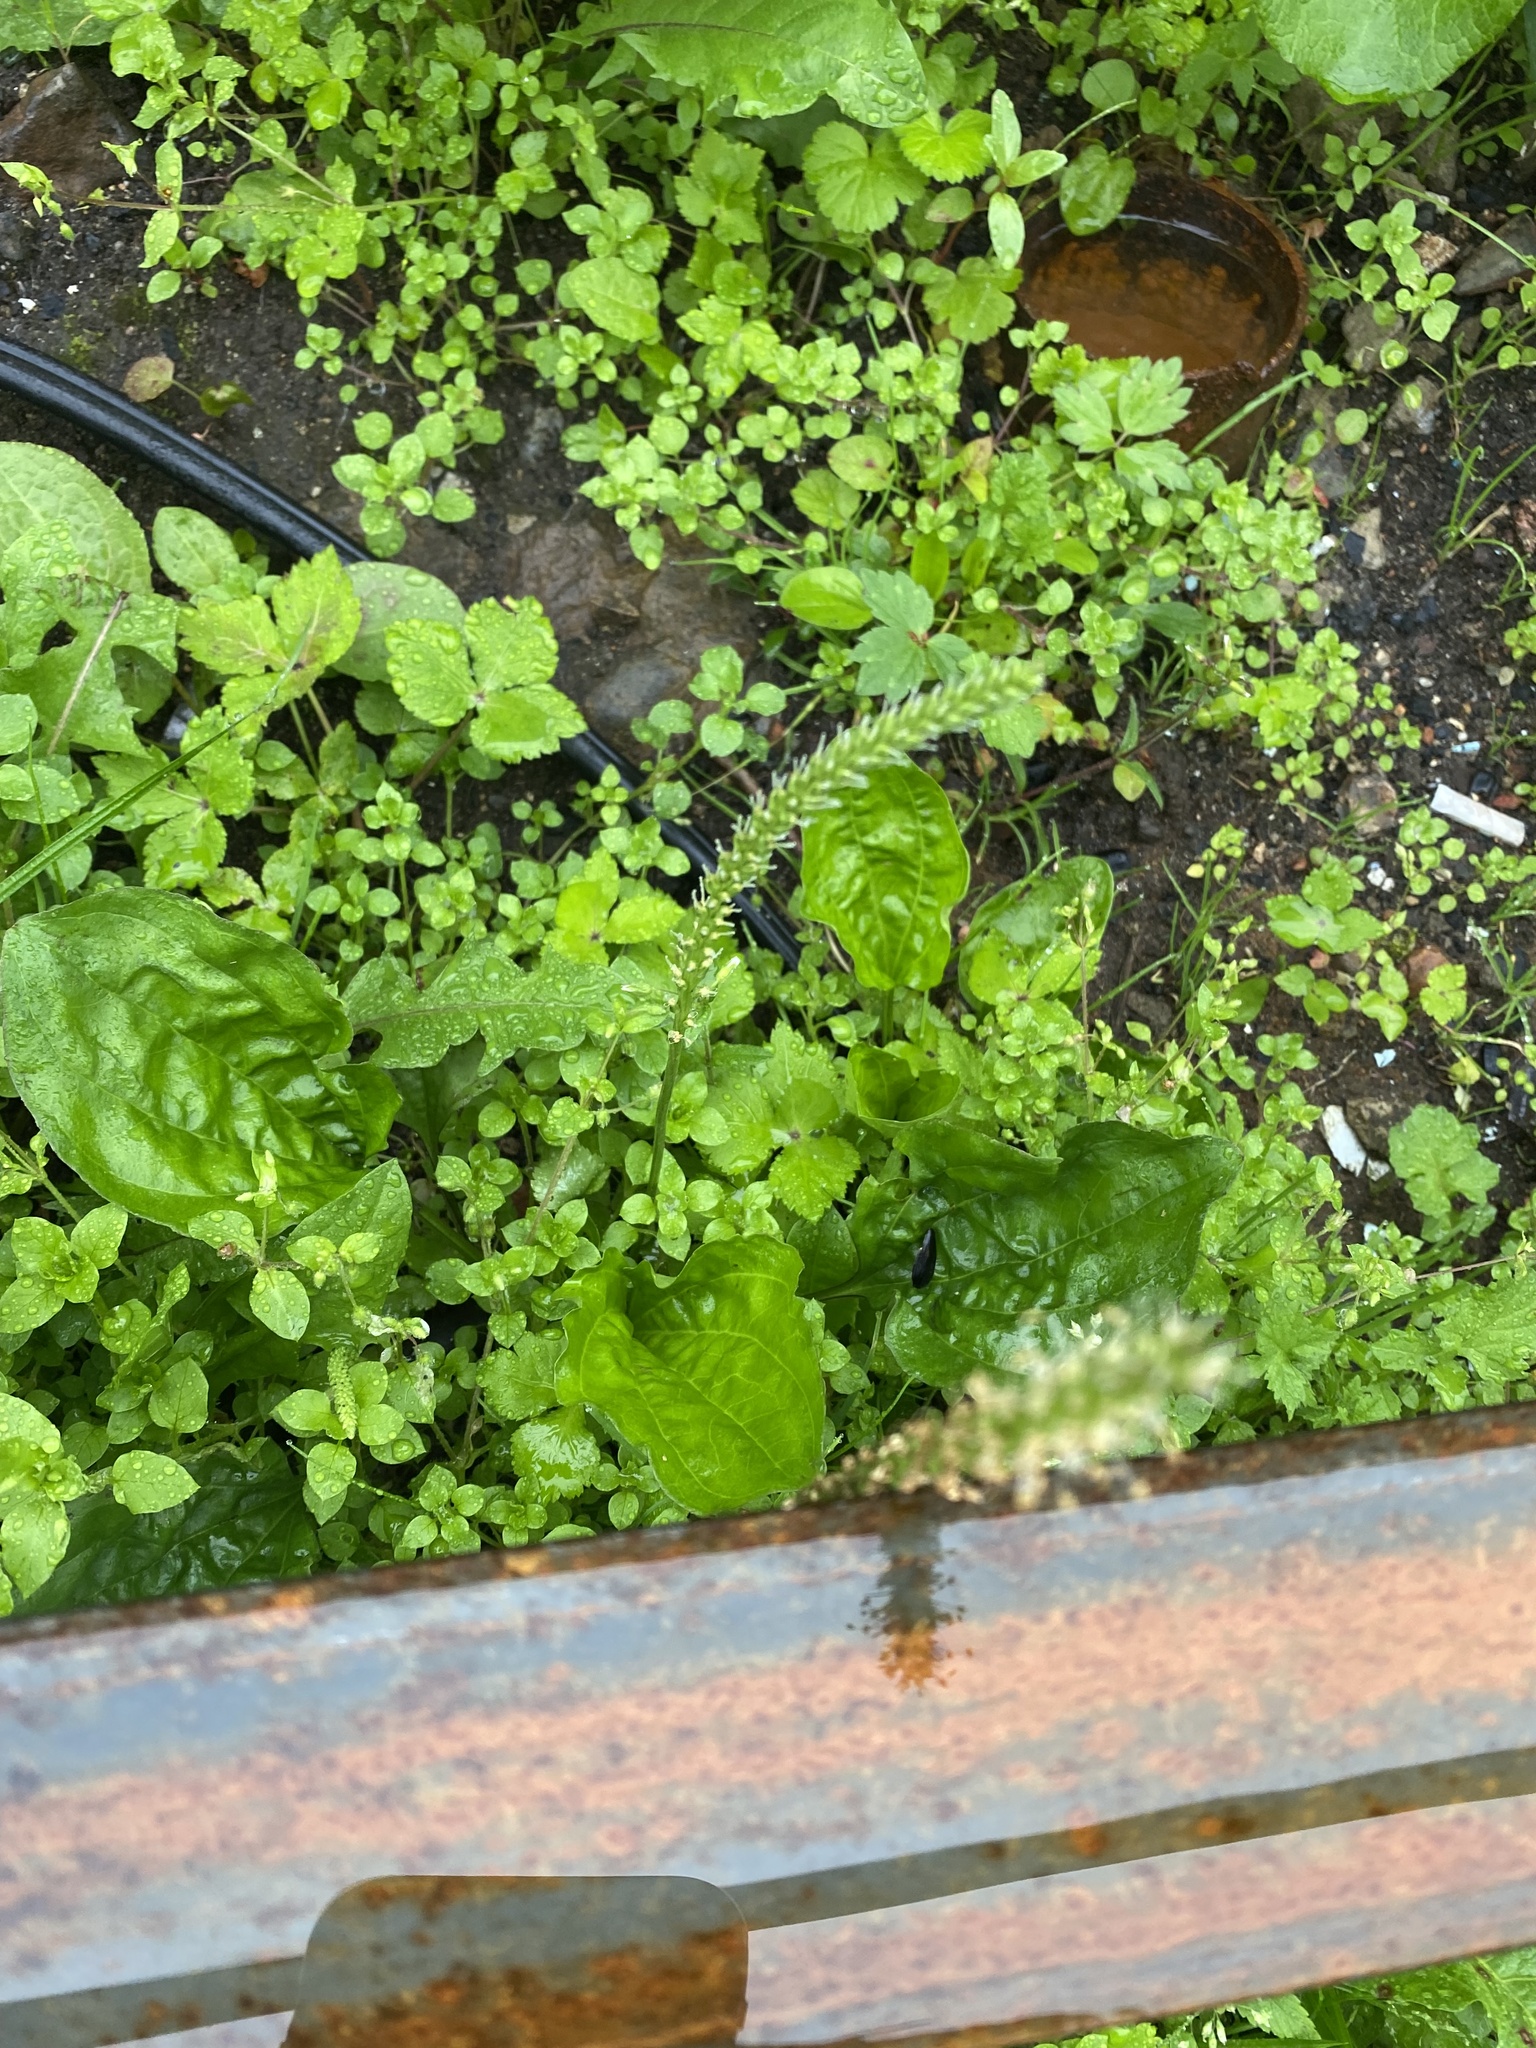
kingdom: Plantae
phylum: Tracheophyta
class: Magnoliopsida
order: Lamiales
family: Plantaginaceae
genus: Plantago
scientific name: Plantago major
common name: Common plantain
